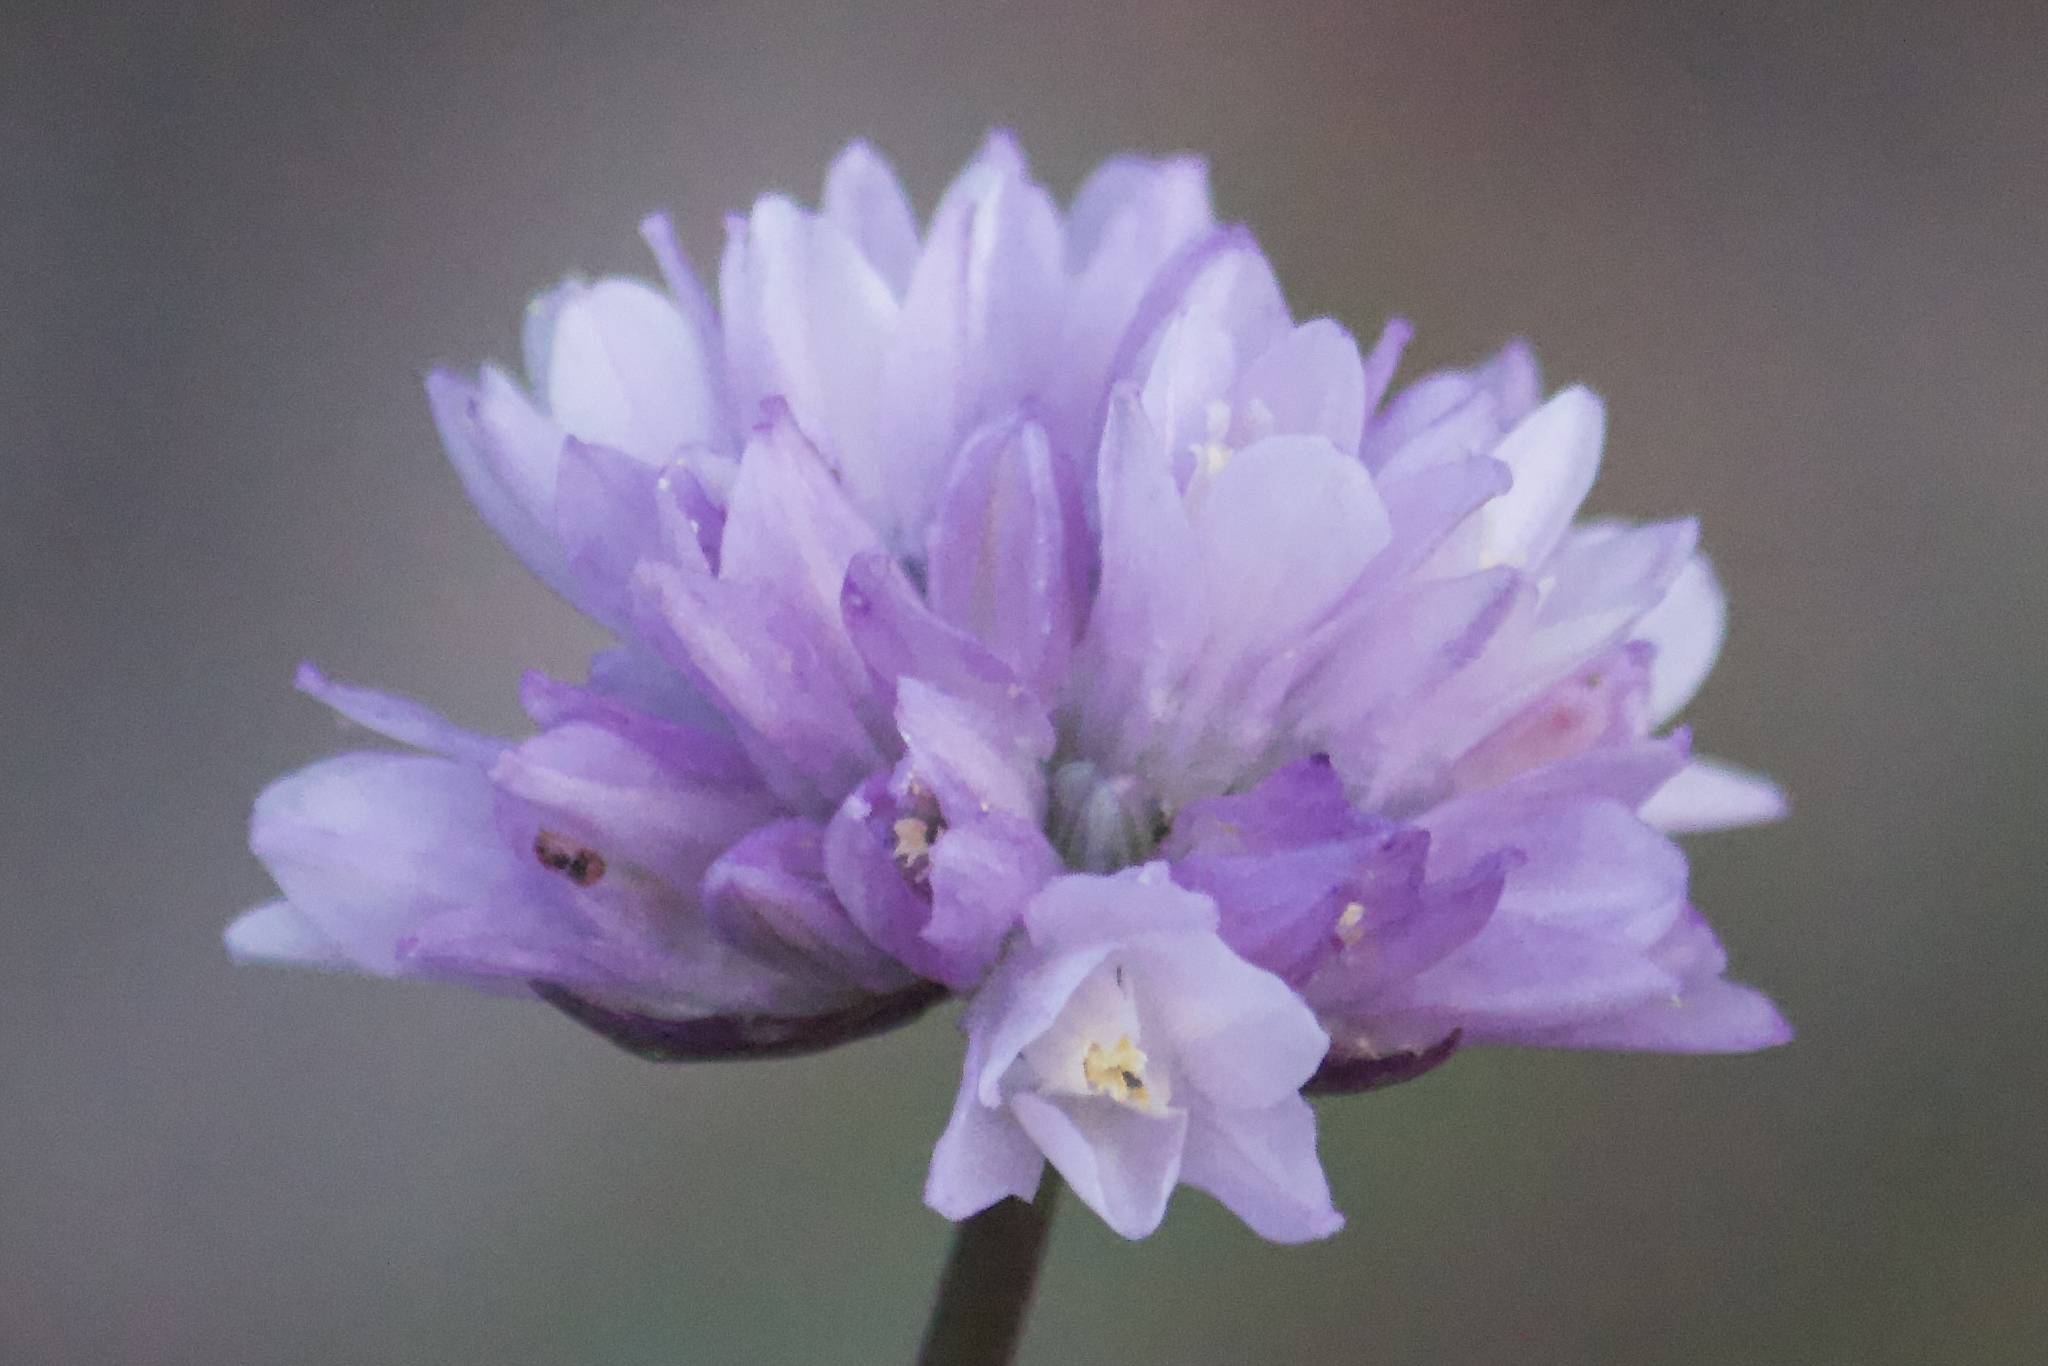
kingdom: Plantae
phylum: Tracheophyta
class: Liliopsida
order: Asparagales
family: Asparagaceae
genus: Dipterostemon
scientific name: Dipterostemon capitatus
